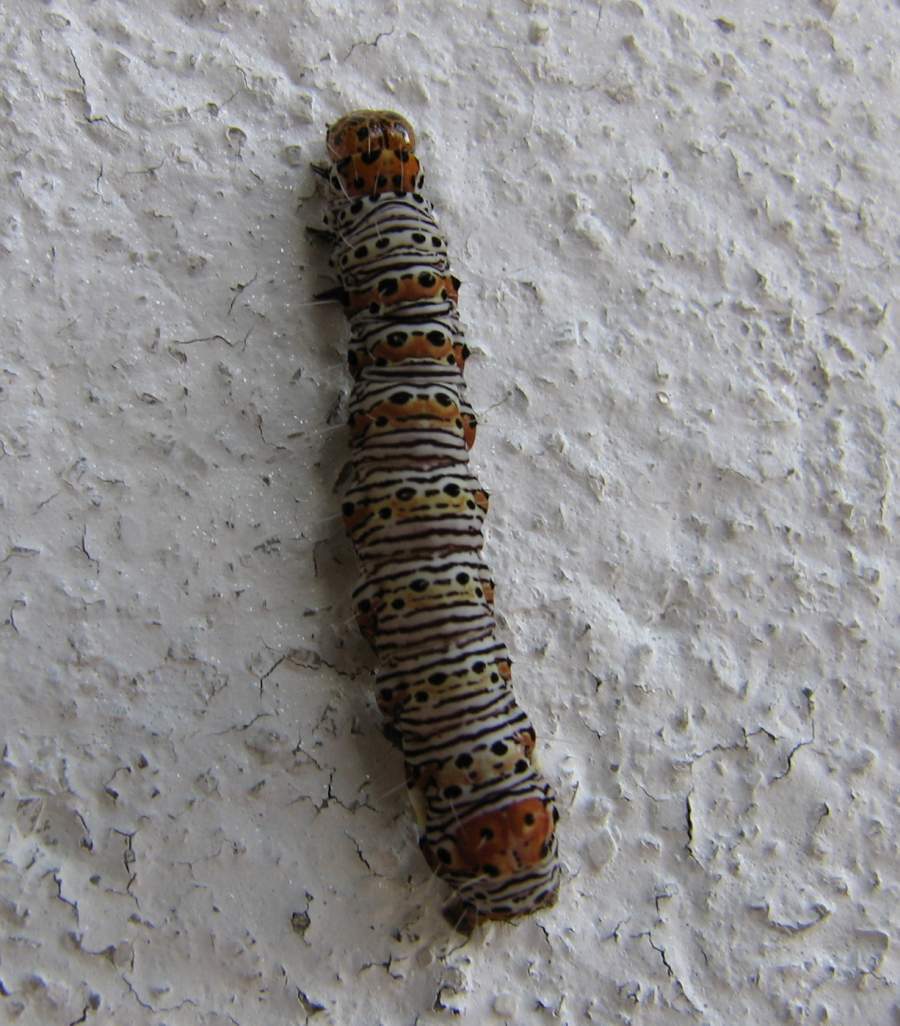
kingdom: Animalia
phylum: Arthropoda
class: Insecta
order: Lepidoptera
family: Noctuidae
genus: Alypia
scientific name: Alypia octomaculata
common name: Eight-spotted forester
